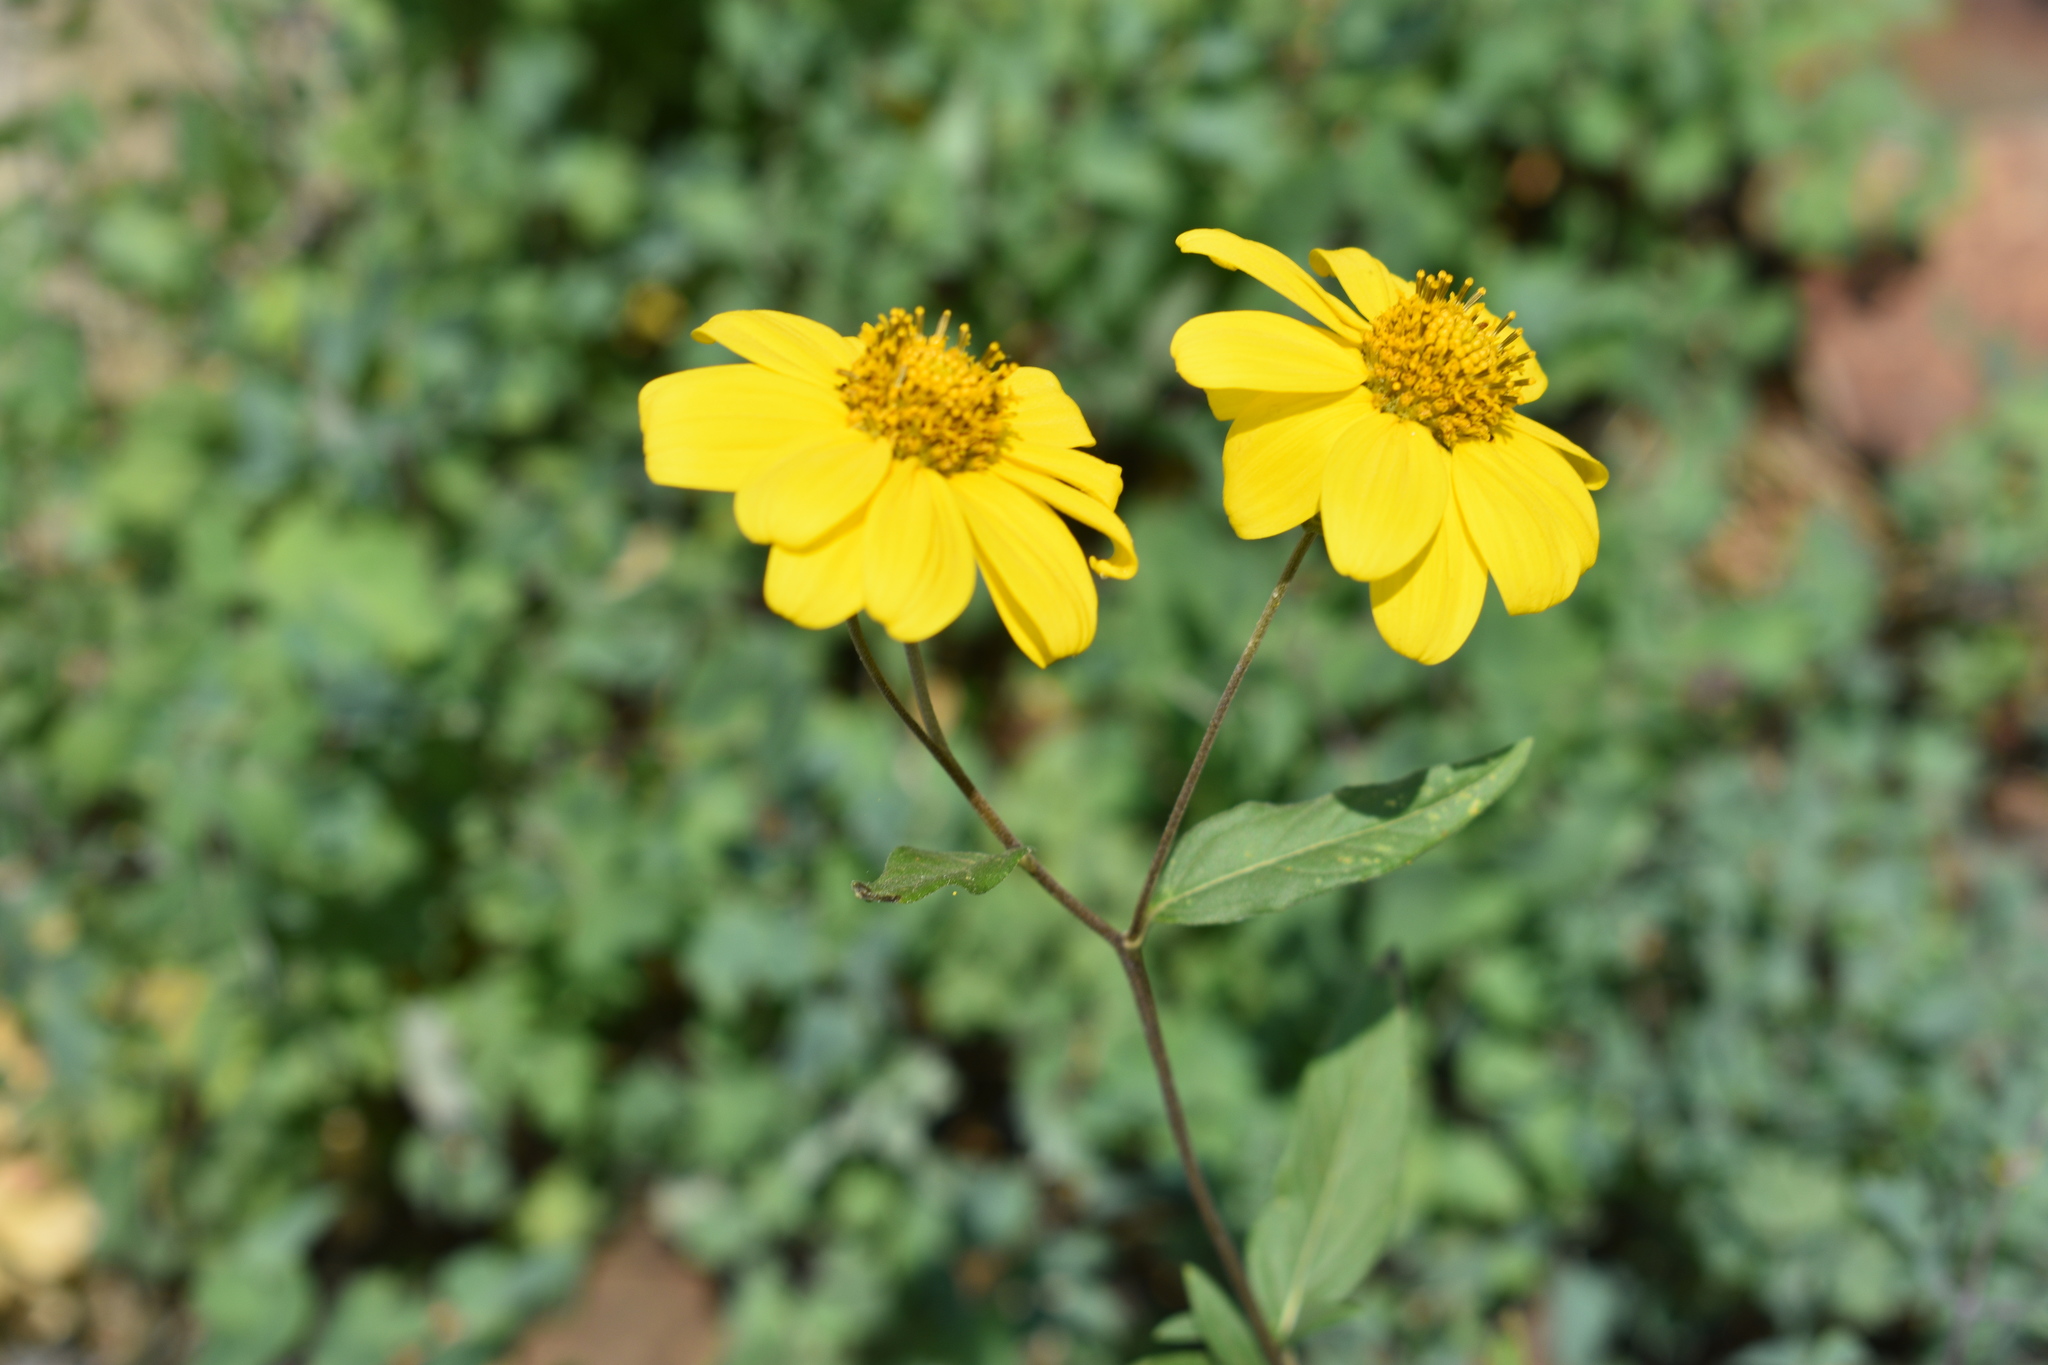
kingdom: Plantae
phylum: Tracheophyta
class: Magnoliopsida
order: Asterales
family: Asteraceae
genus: Heliomeris
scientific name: Heliomeris multiflora
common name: Showy goldeneye
